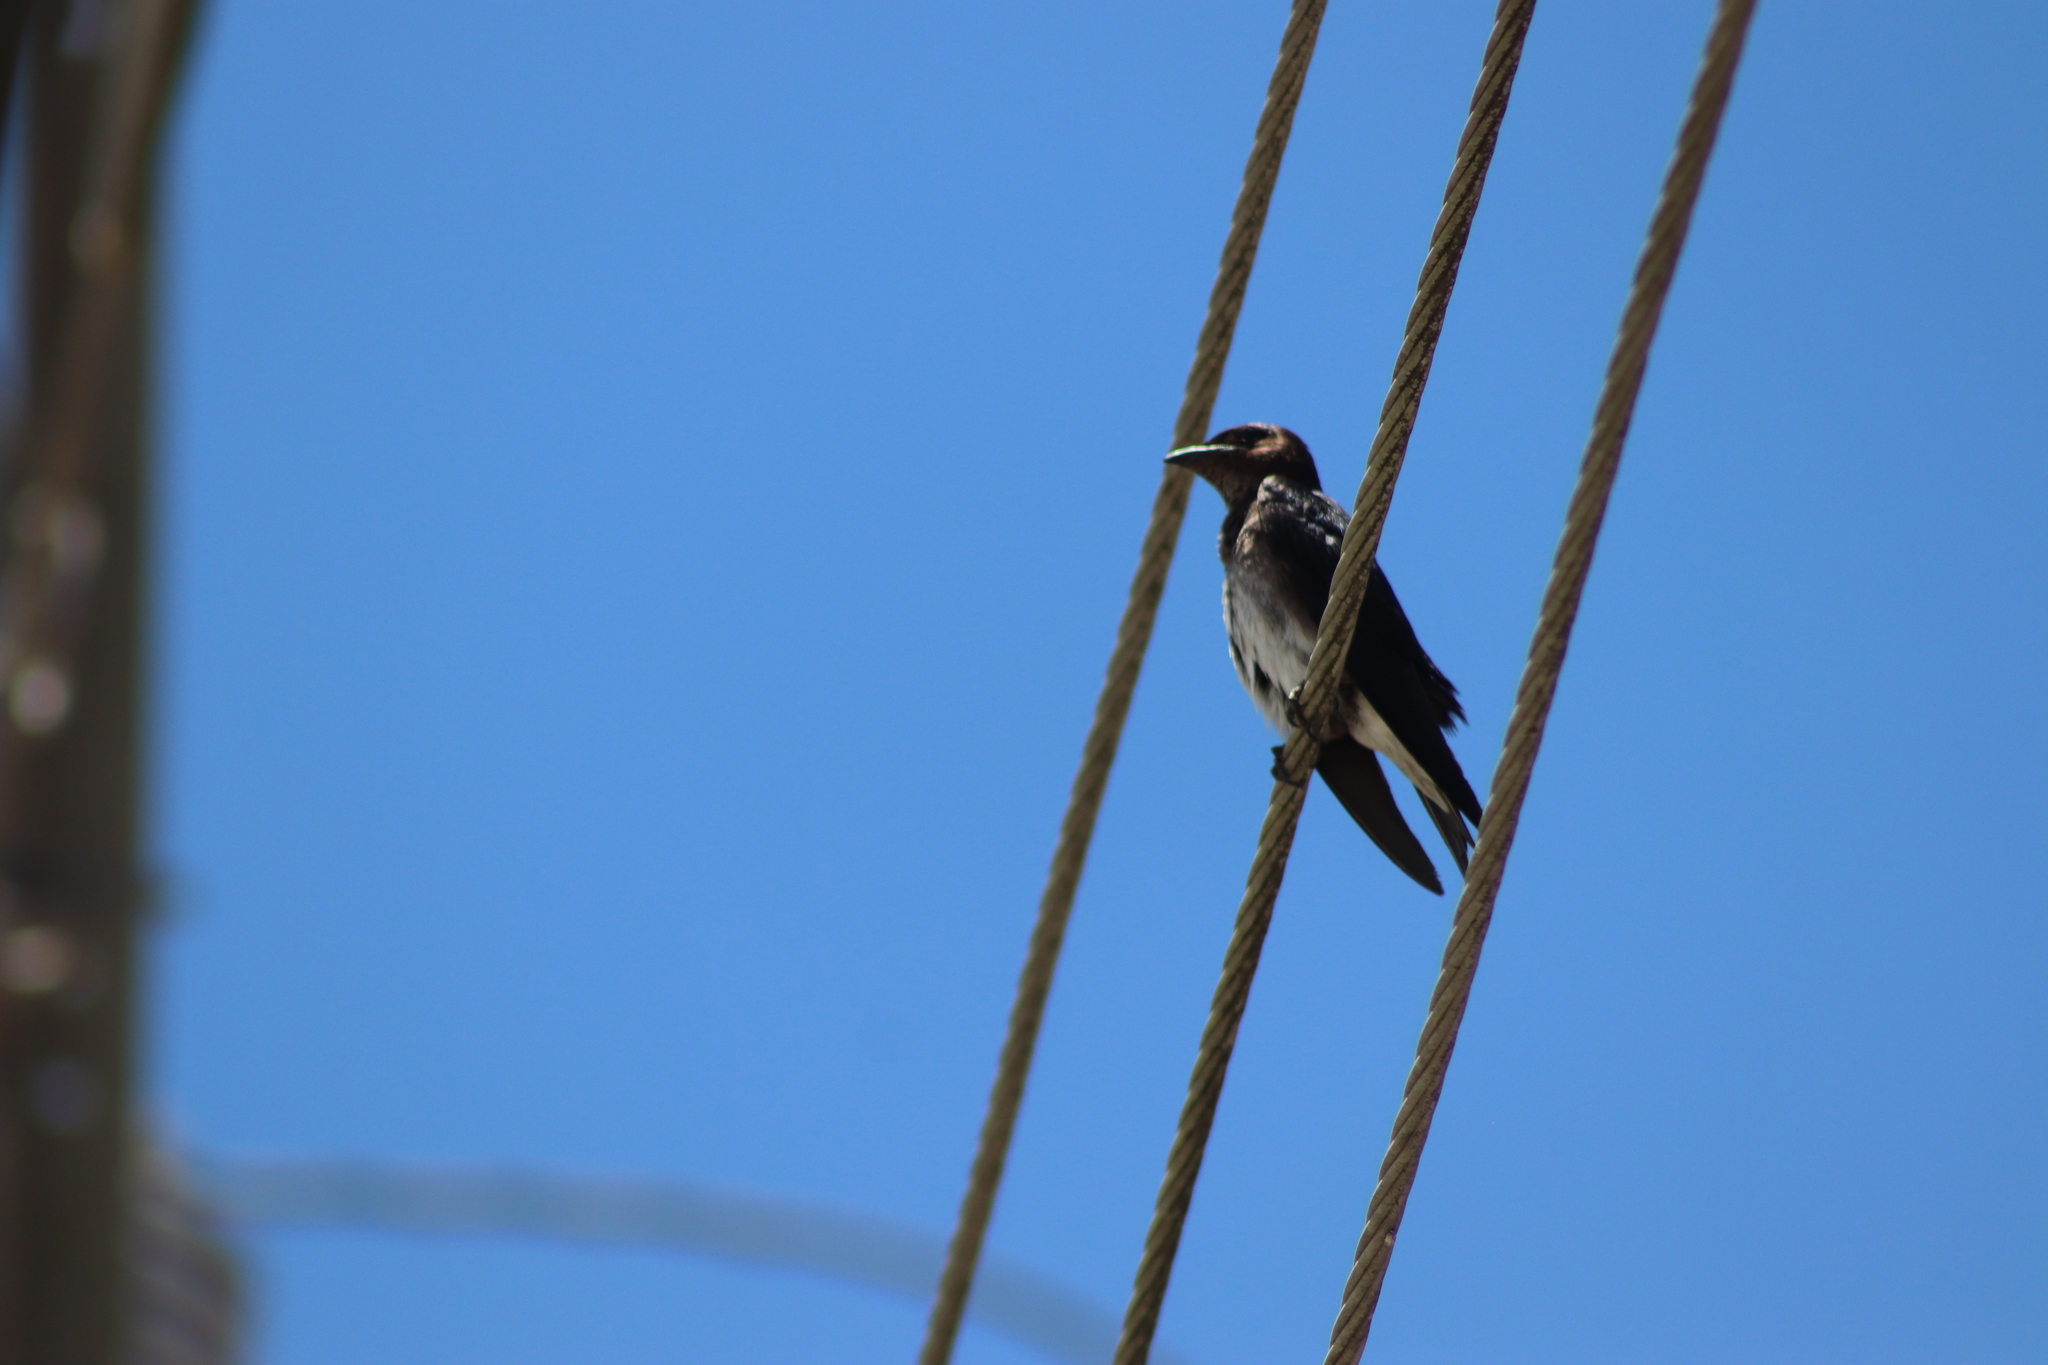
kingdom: Animalia
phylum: Chordata
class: Aves
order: Passeriformes
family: Hirundinidae
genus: Progne
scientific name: Progne chalybea
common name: Grey-breasted martin
